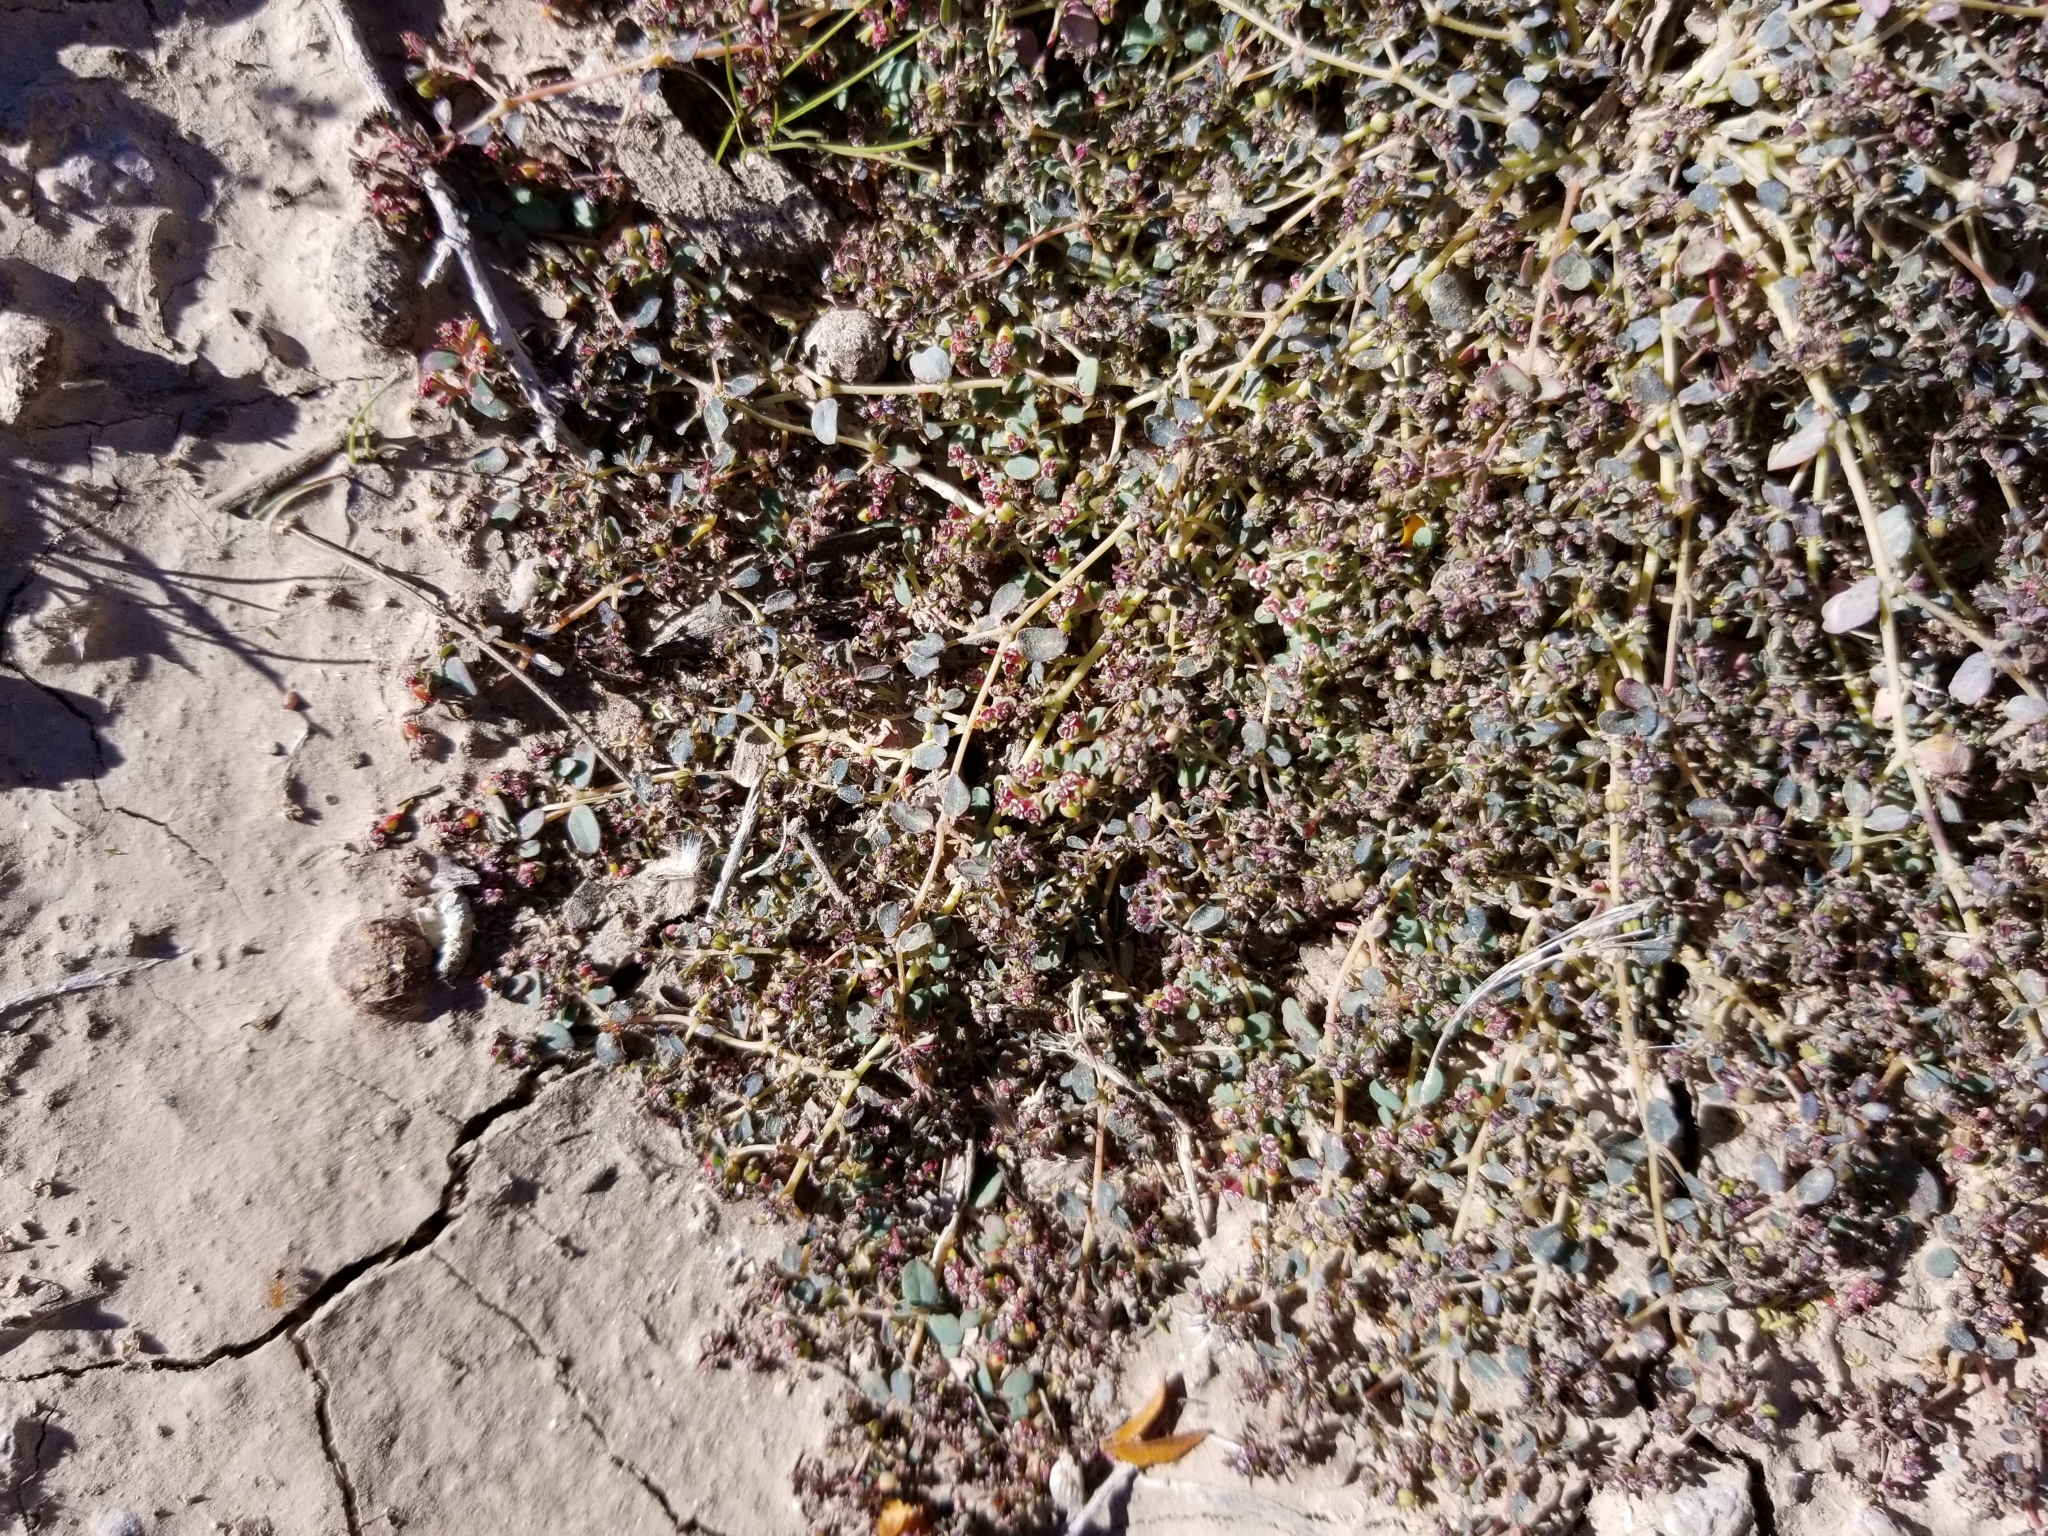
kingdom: Plantae
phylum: Tracheophyta
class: Magnoliopsida
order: Malpighiales
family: Euphorbiaceae
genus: Euphorbia
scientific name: Euphorbia polycarpa
